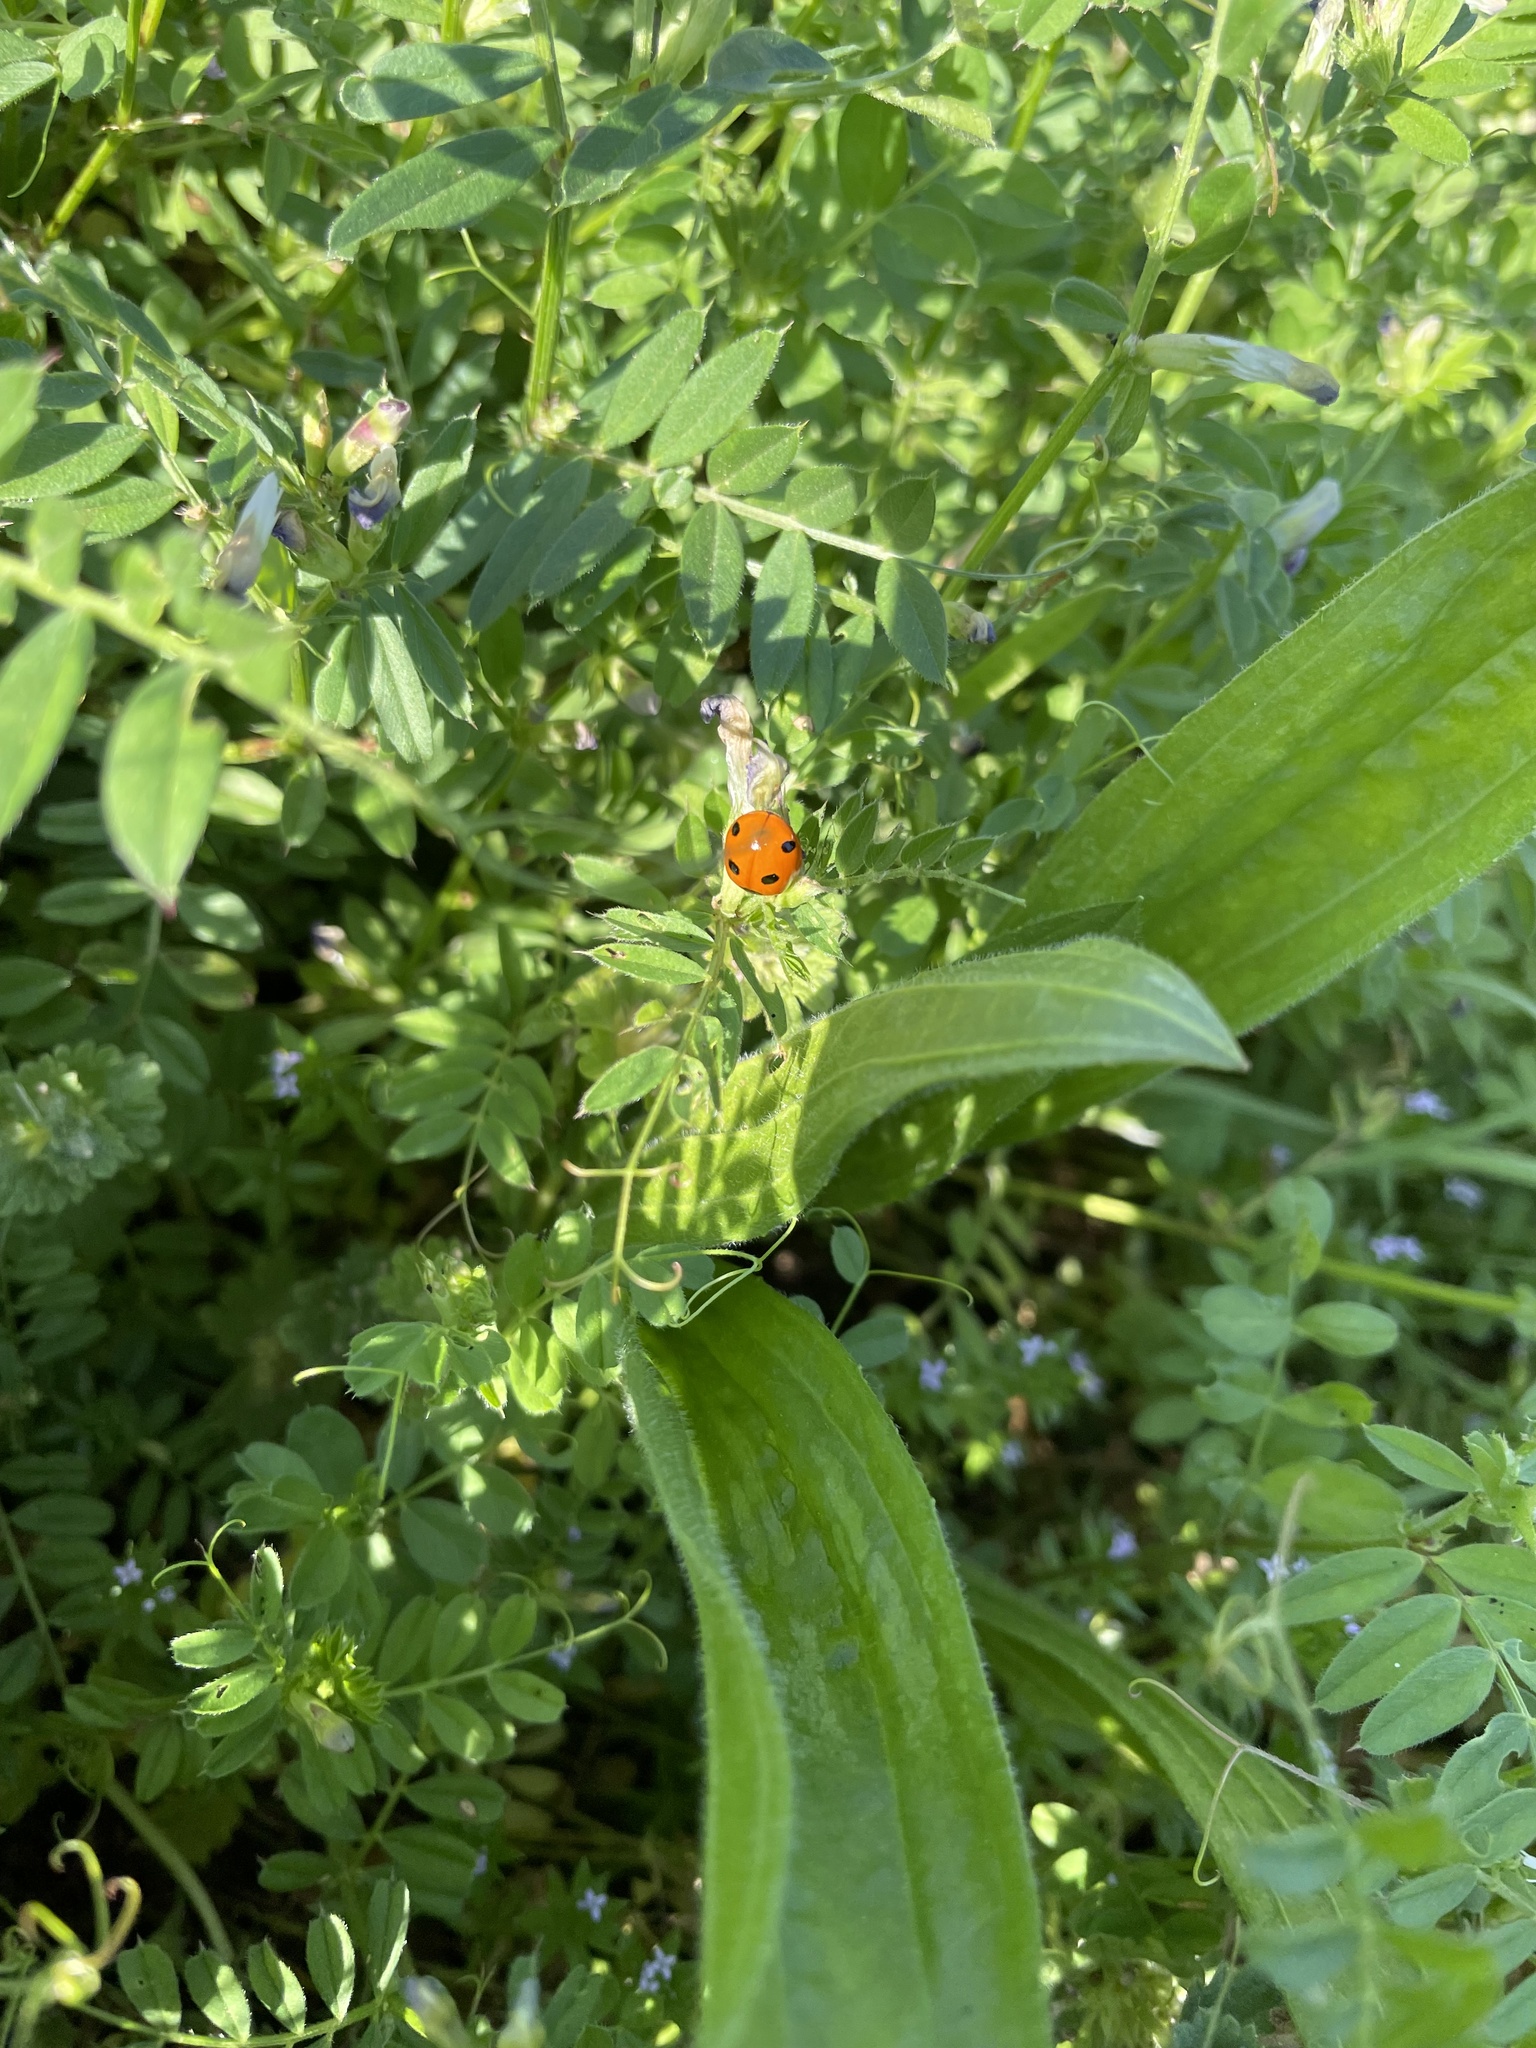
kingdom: Animalia
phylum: Arthropoda
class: Insecta
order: Coleoptera
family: Coccinellidae
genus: Coccinella
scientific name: Coccinella septempunctata
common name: Sevenspotted lady beetle
